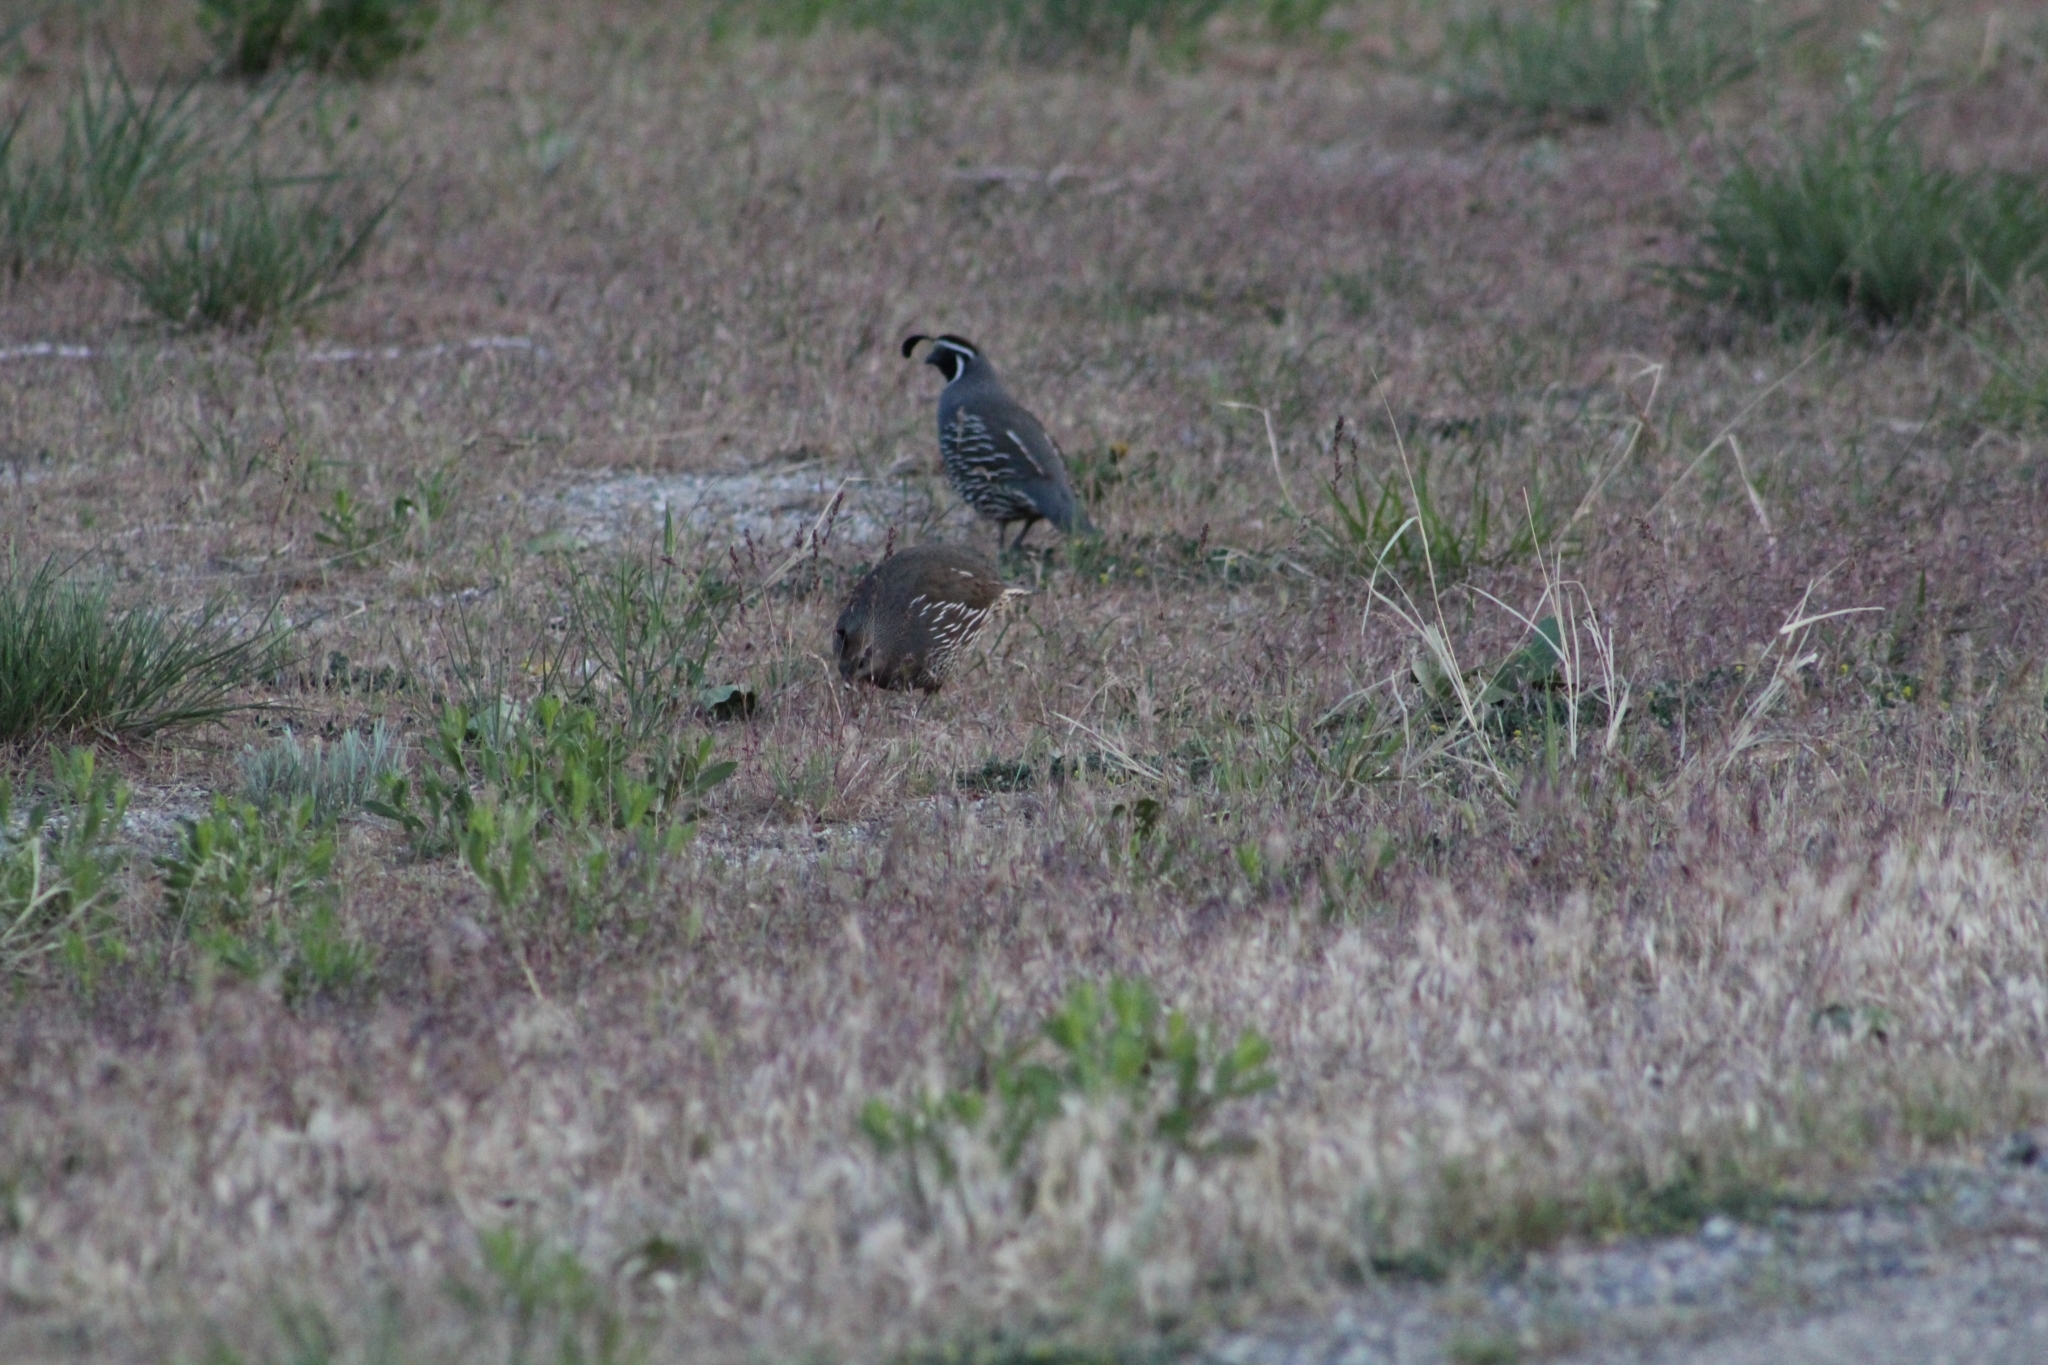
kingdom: Animalia
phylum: Chordata
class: Aves
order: Galliformes
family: Odontophoridae
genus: Callipepla
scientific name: Callipepla californica
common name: California quail
